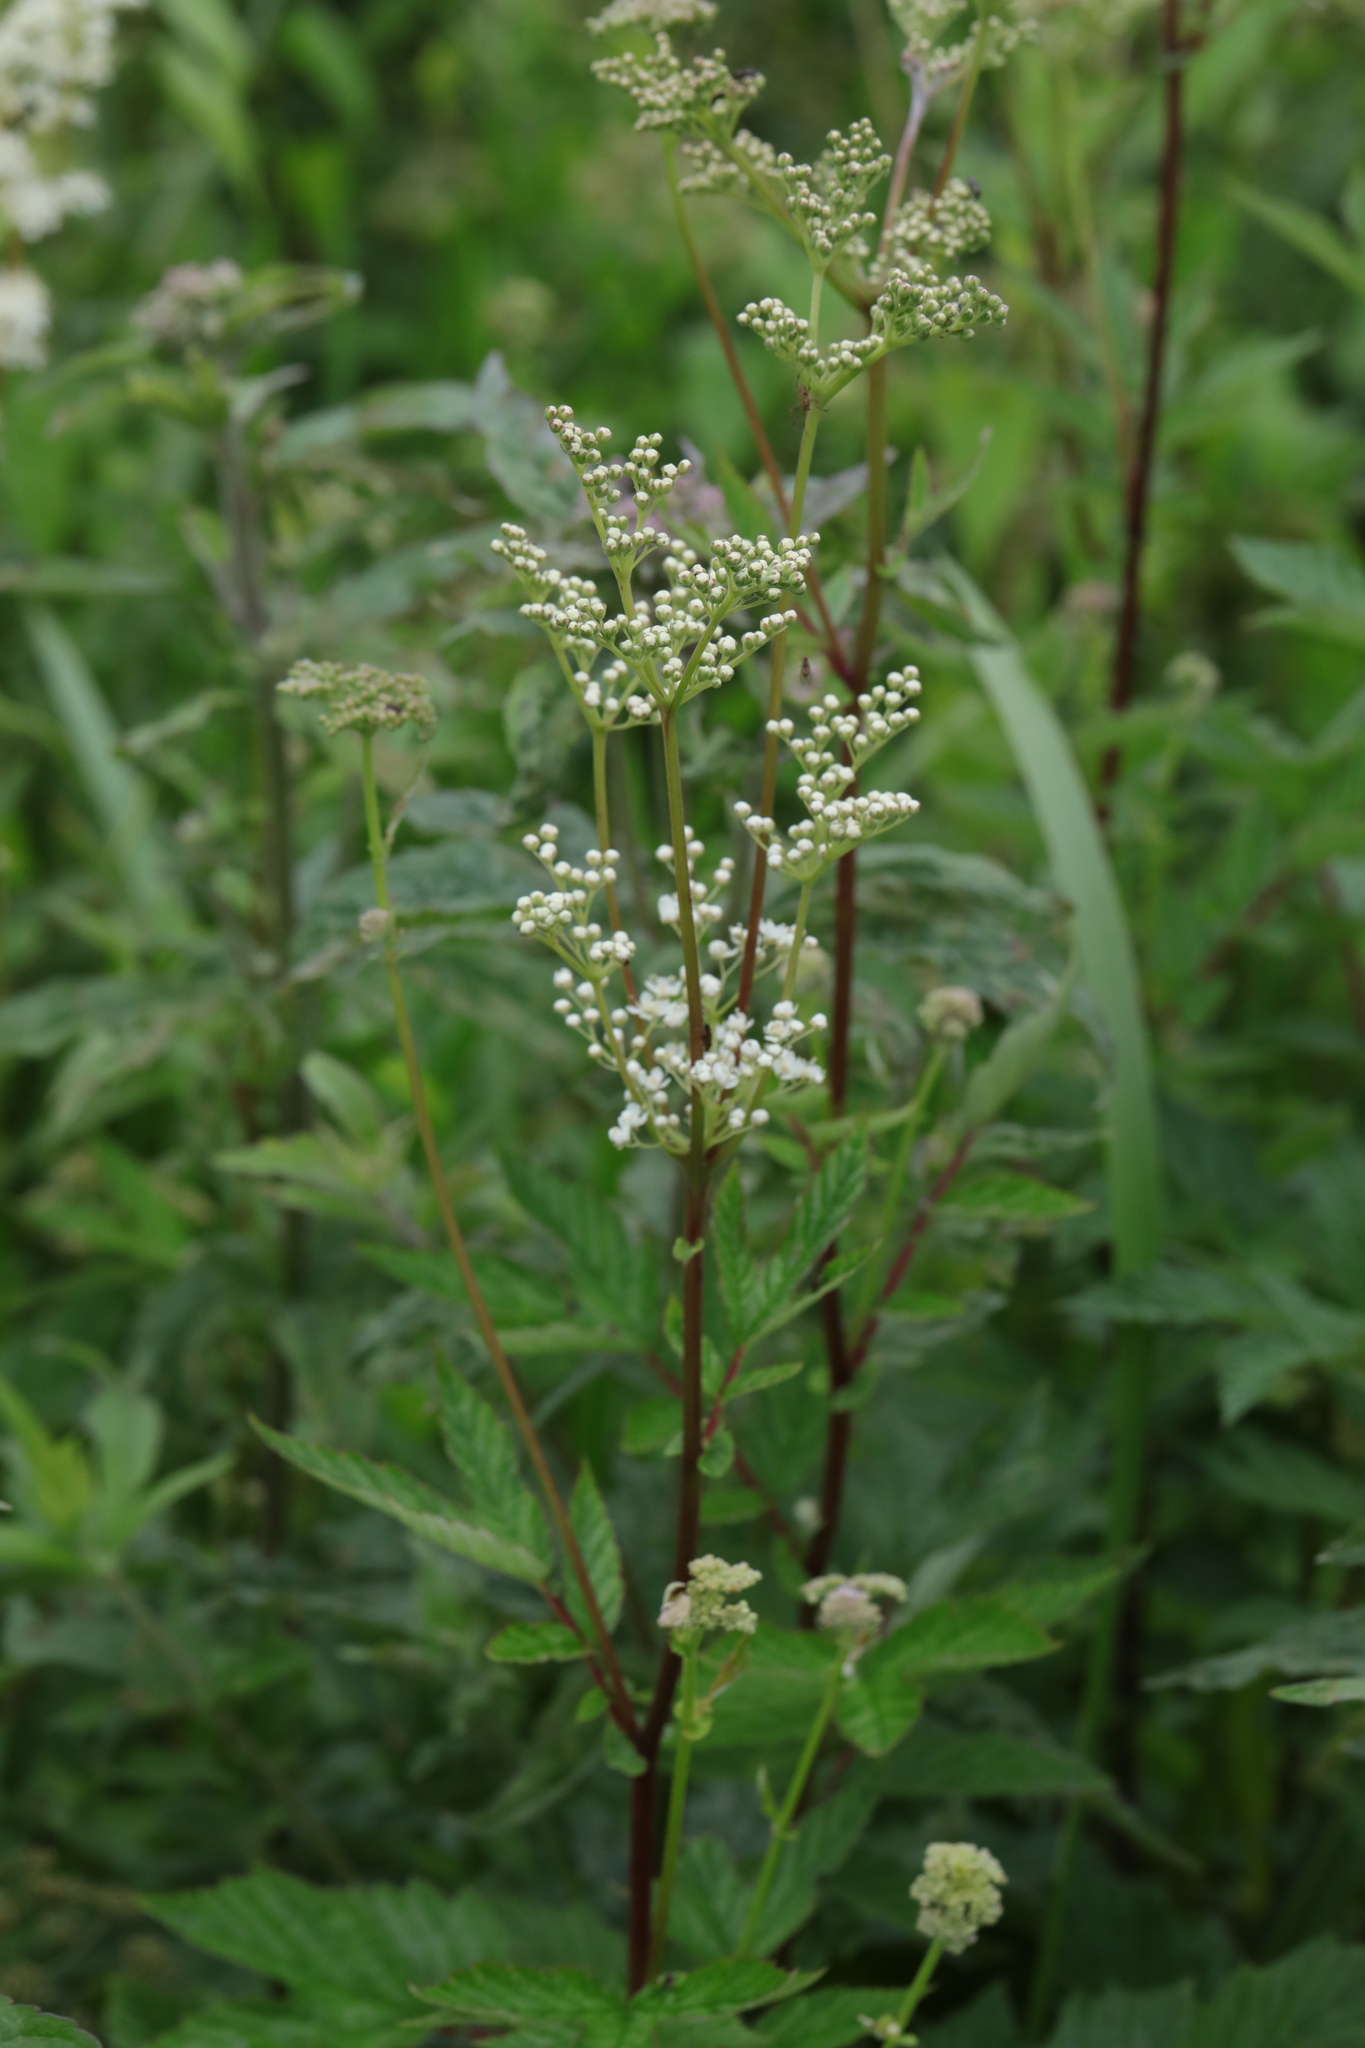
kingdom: Plantae
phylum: Tracheophyta
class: Magnoliopsida
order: Rosales
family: Rosaceae
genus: Filipendula
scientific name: Filipendula ulmaria
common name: Meadowsweet
